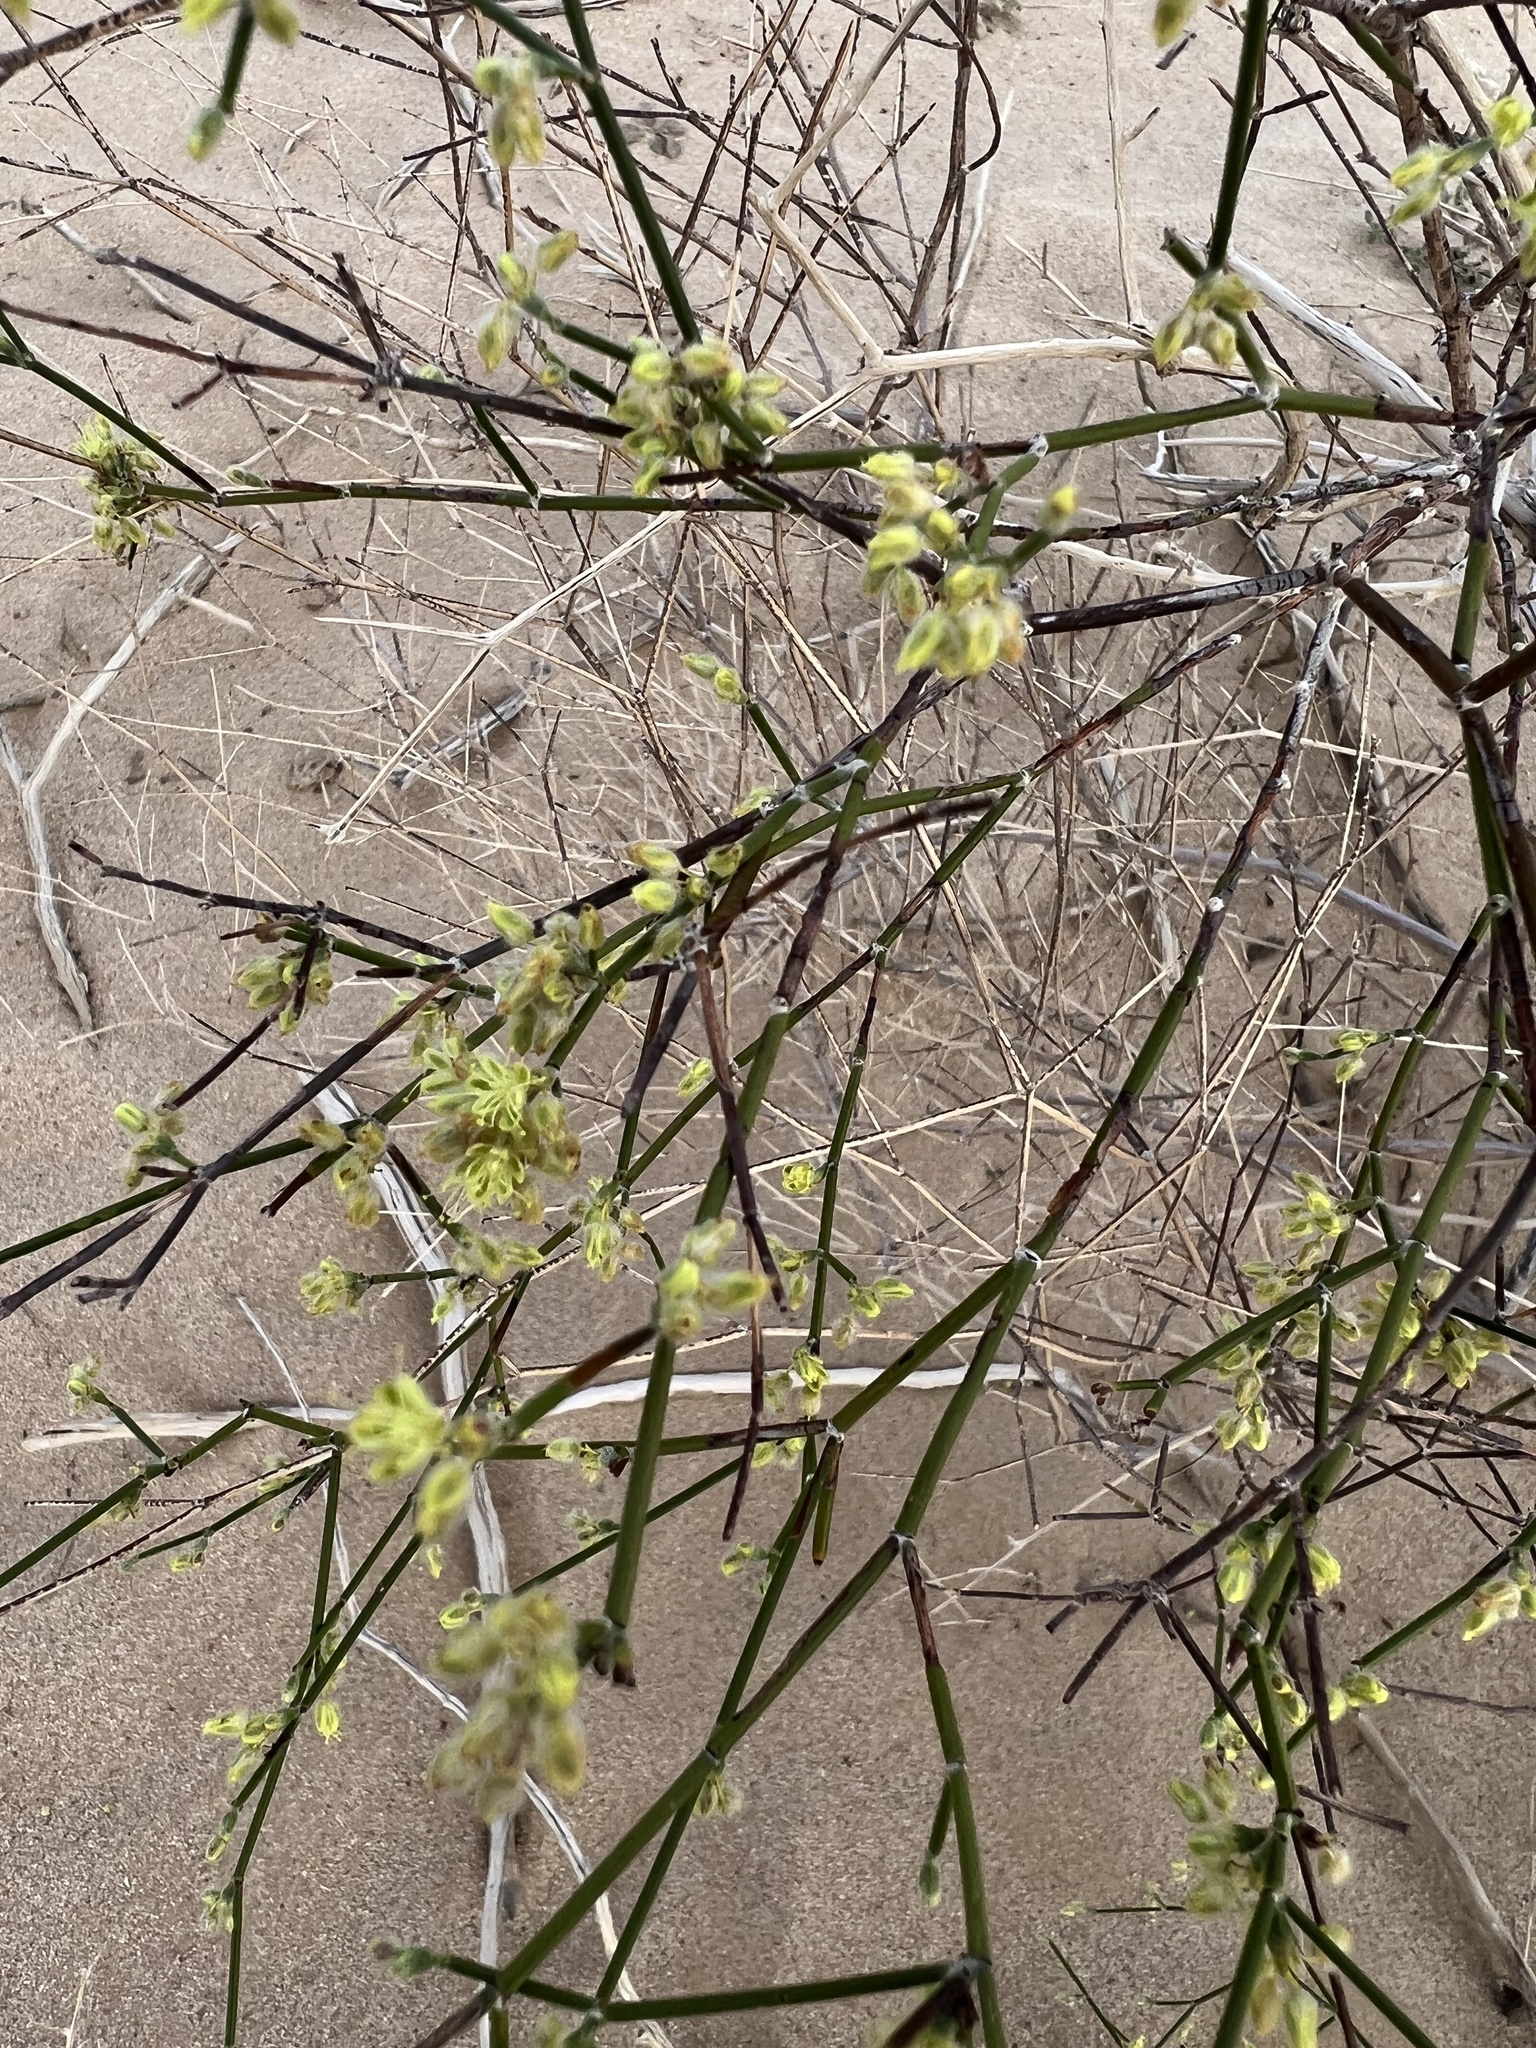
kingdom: Plantae
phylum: Tracheophyta
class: Magnoliopsida
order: Caryophyllales
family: Polygonaceae
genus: Eriogonum
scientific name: Eriogonum deserticola
